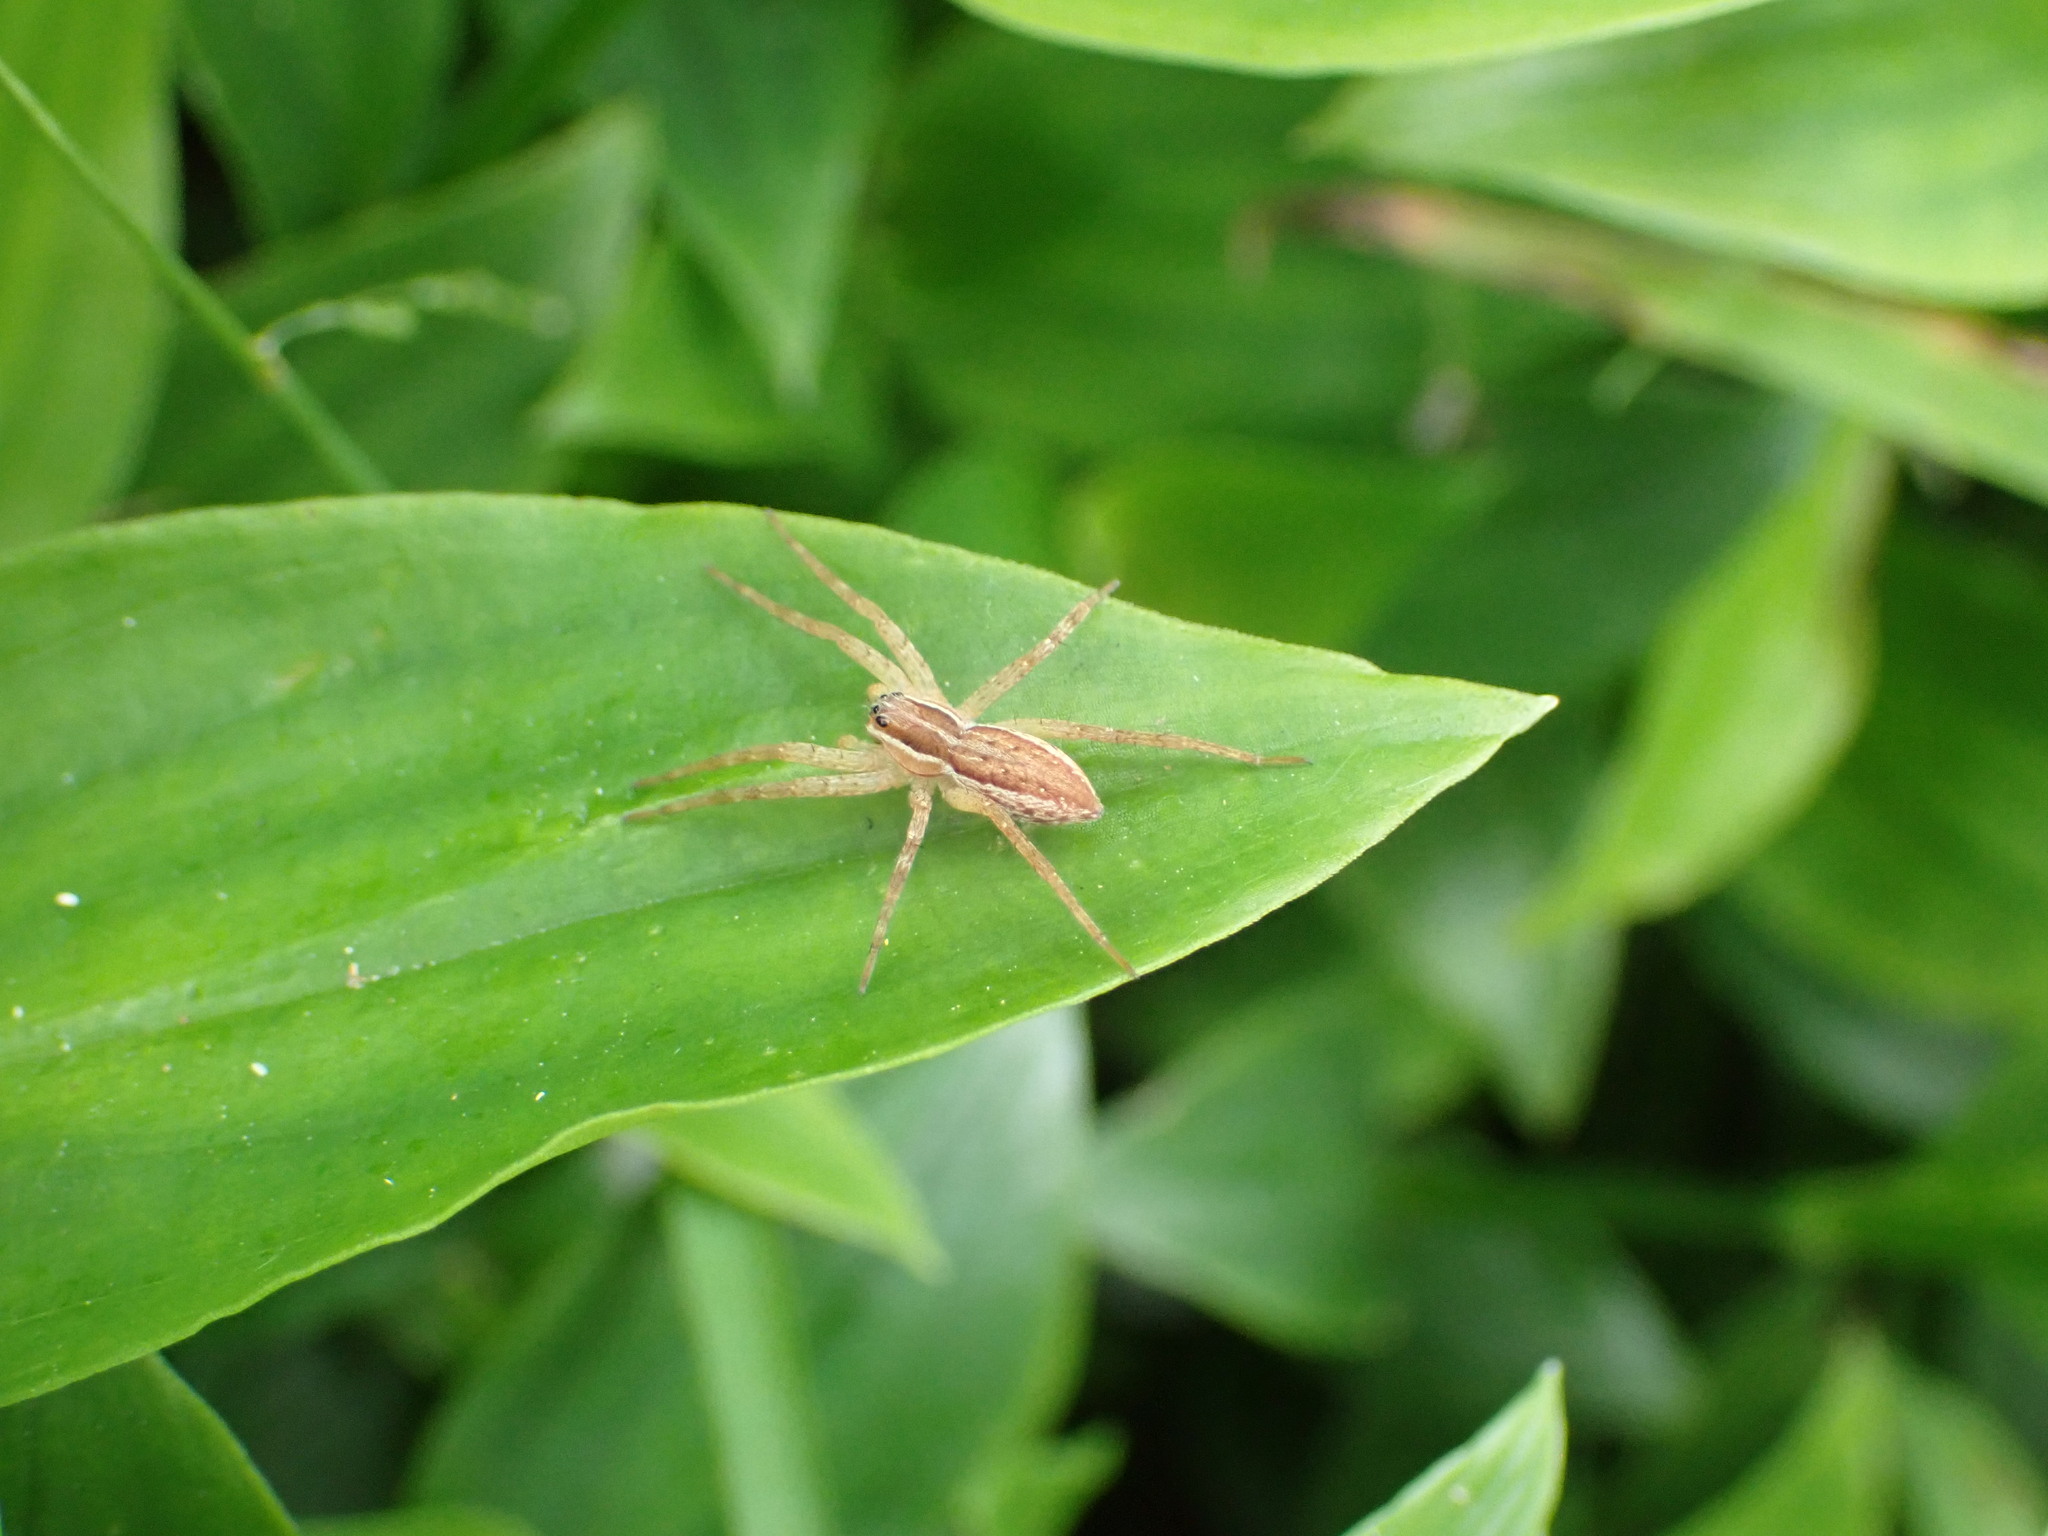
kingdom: Animalia
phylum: Arthropoda
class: Arachnida
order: Araneae
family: Pisauridae
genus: Dolomedes
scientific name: Dolomedes minor
